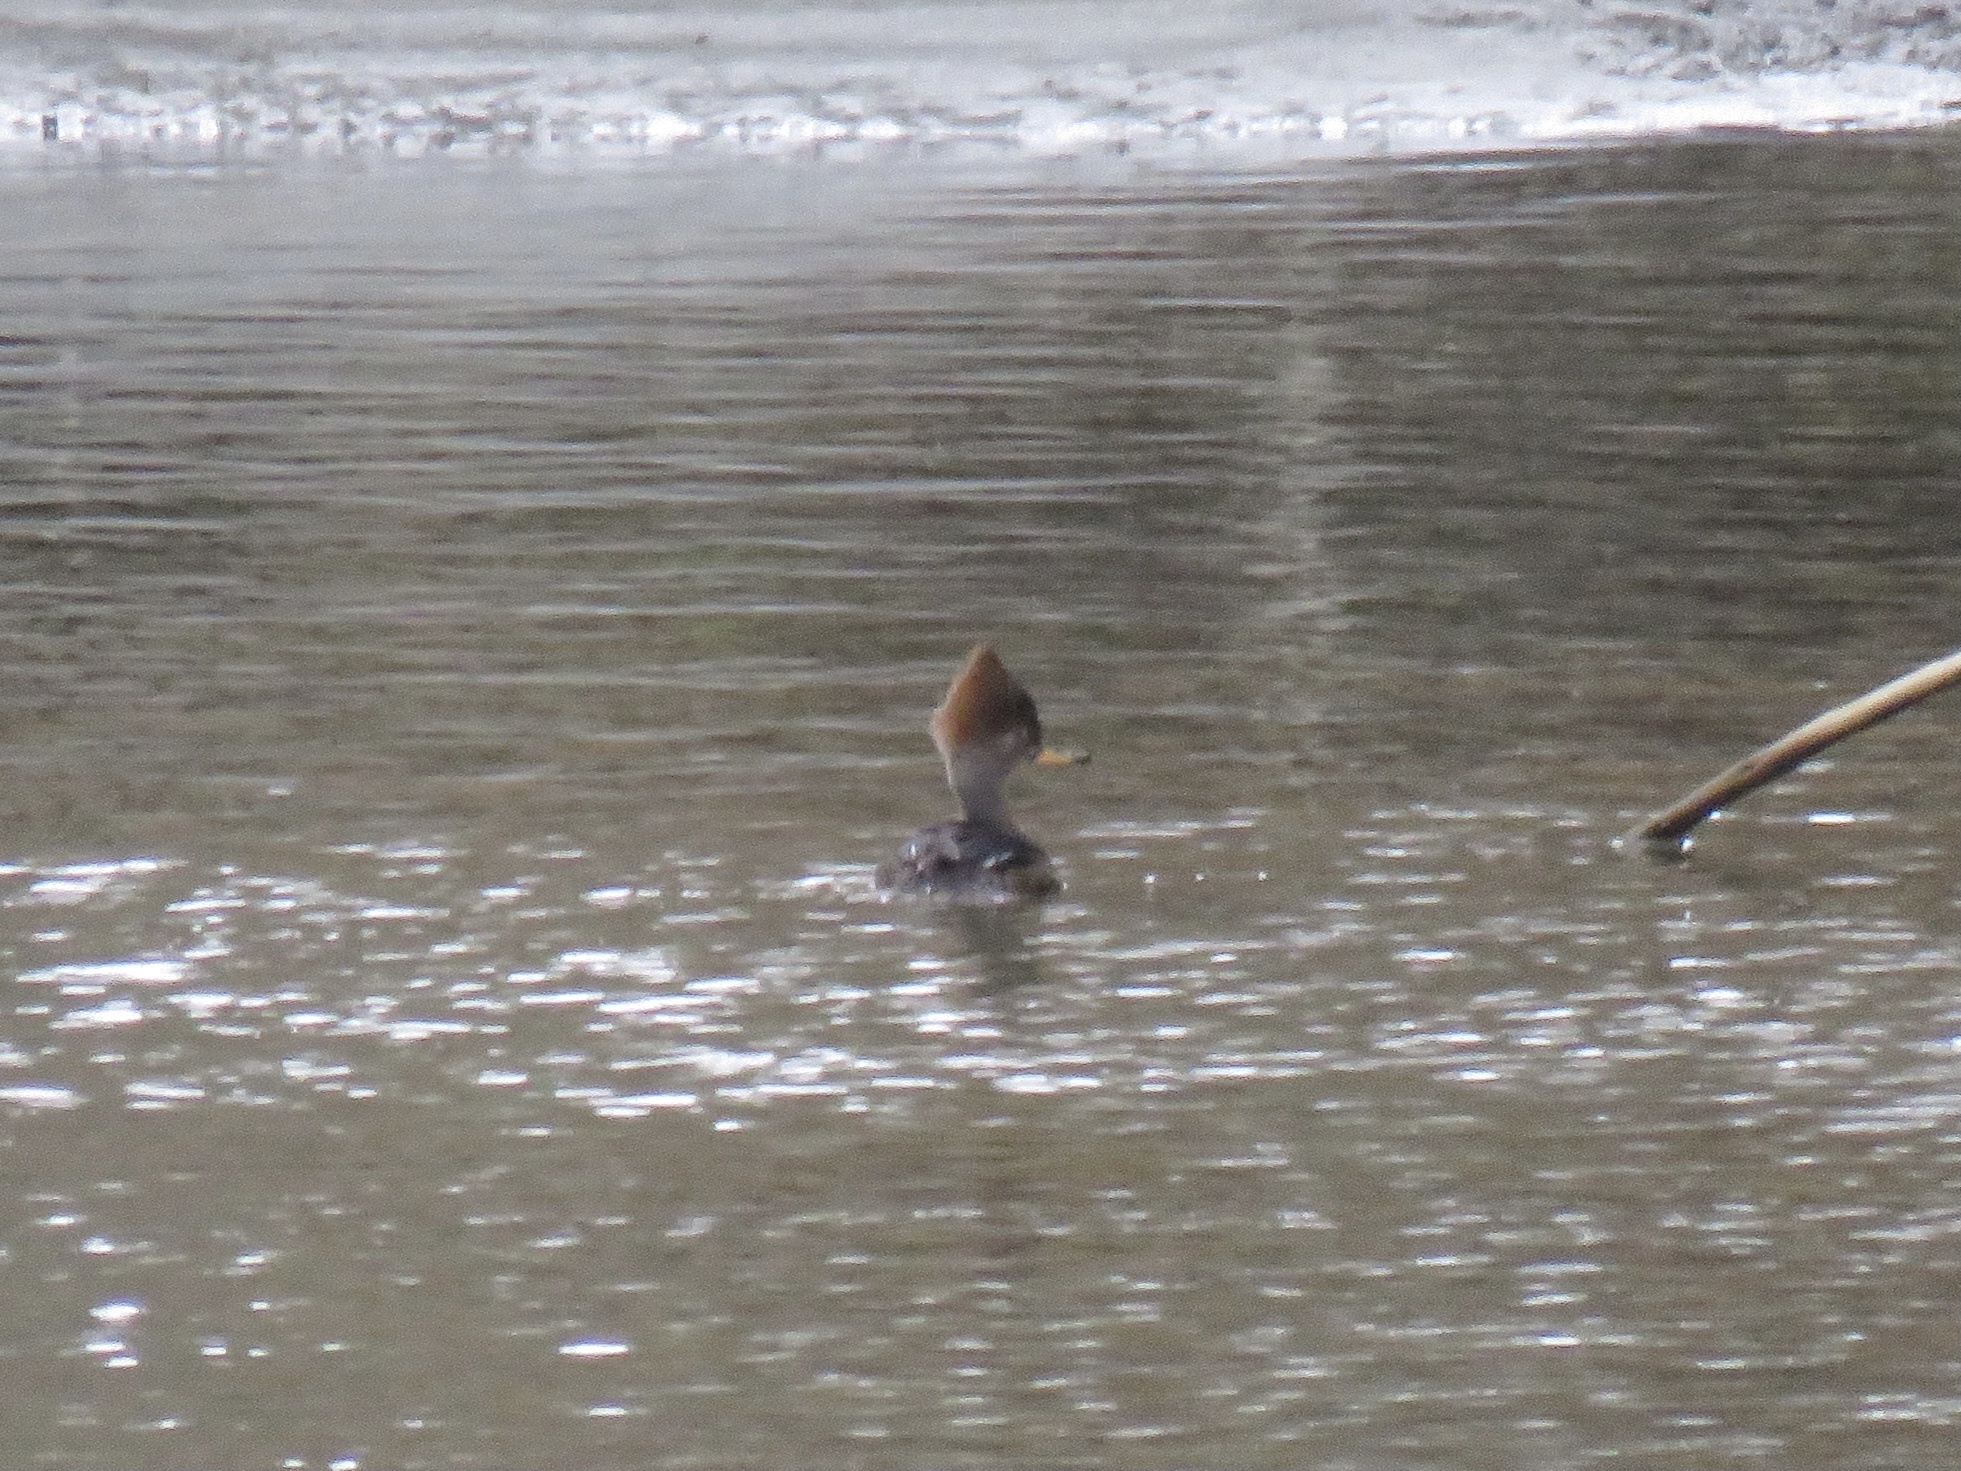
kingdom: Animalia
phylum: Chordata
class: Aves
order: Anseriformes
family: Anatidae
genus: Lophodytes
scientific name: Lophodytes cucullatus
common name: Hooded merganser
